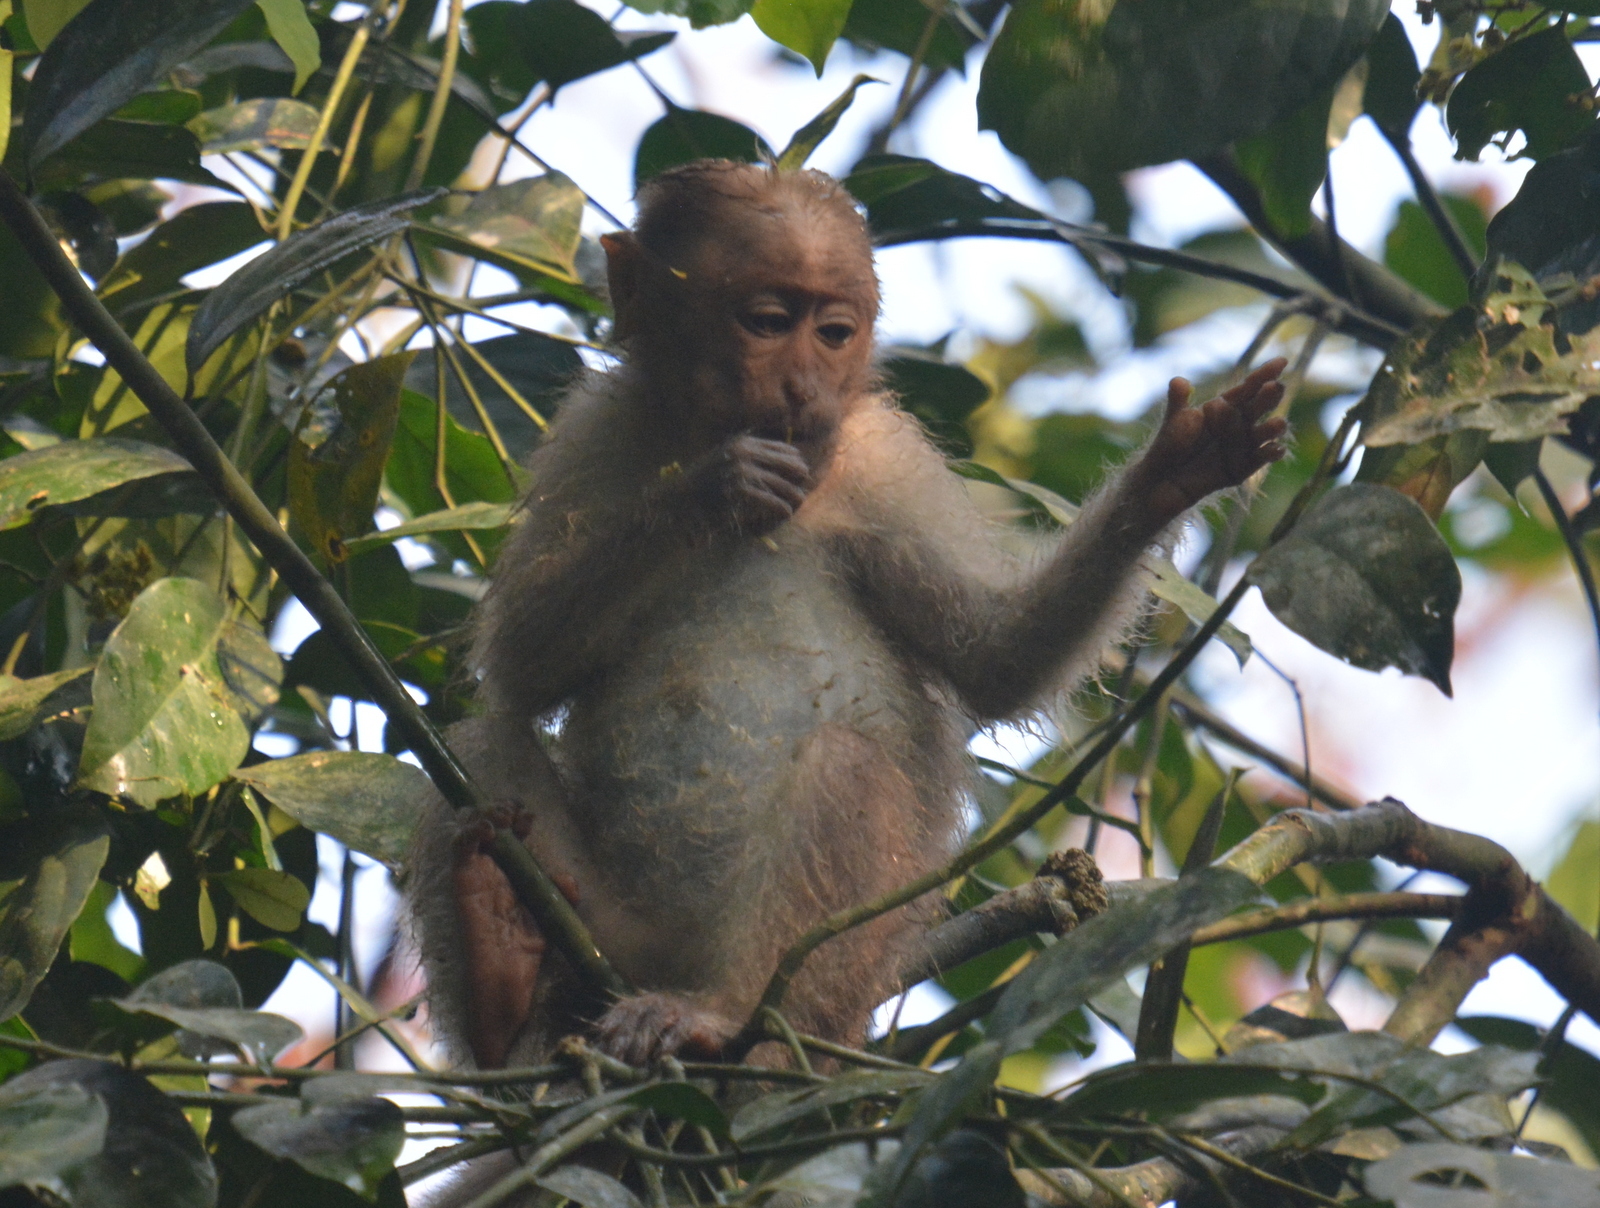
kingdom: Animalia
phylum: Chordata
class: Mammalia
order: Primates
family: Cercopithecidae
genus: Macaca
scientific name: Macaca radiata
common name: Bonnet macaque
